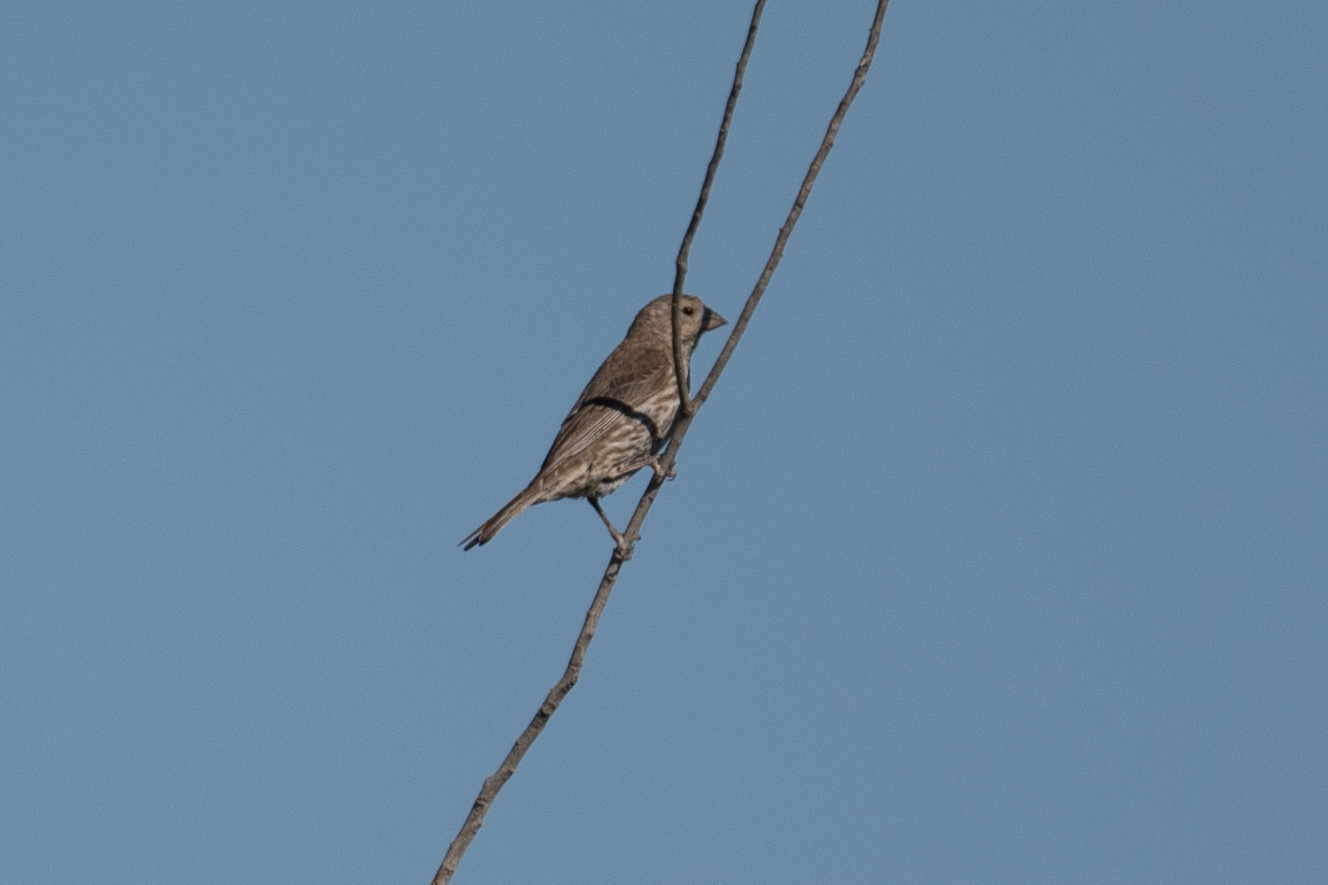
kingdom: Animalia
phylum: Chordata
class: Aves
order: Passeriformes
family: Fringillidae
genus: Haemorhous
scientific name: Haemorhous mexicanus
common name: House finch
